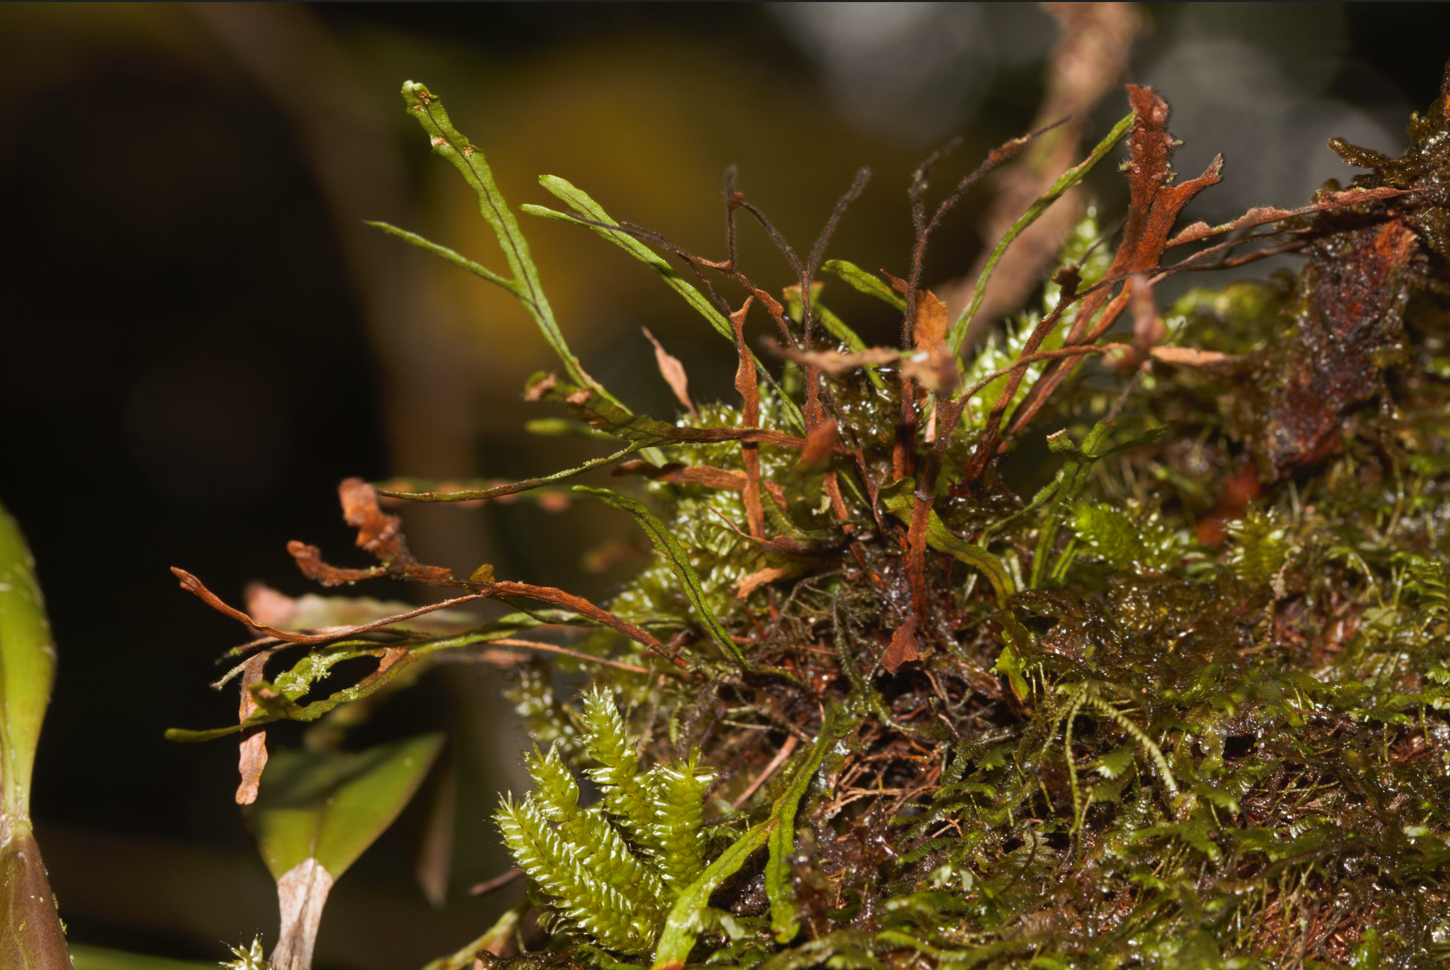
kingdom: Plantae
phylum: Tracheophyta
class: Polypodiopsida
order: Polypodiales
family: Polypodiaceae
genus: Cochlidium
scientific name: Cochlidium furcatum
